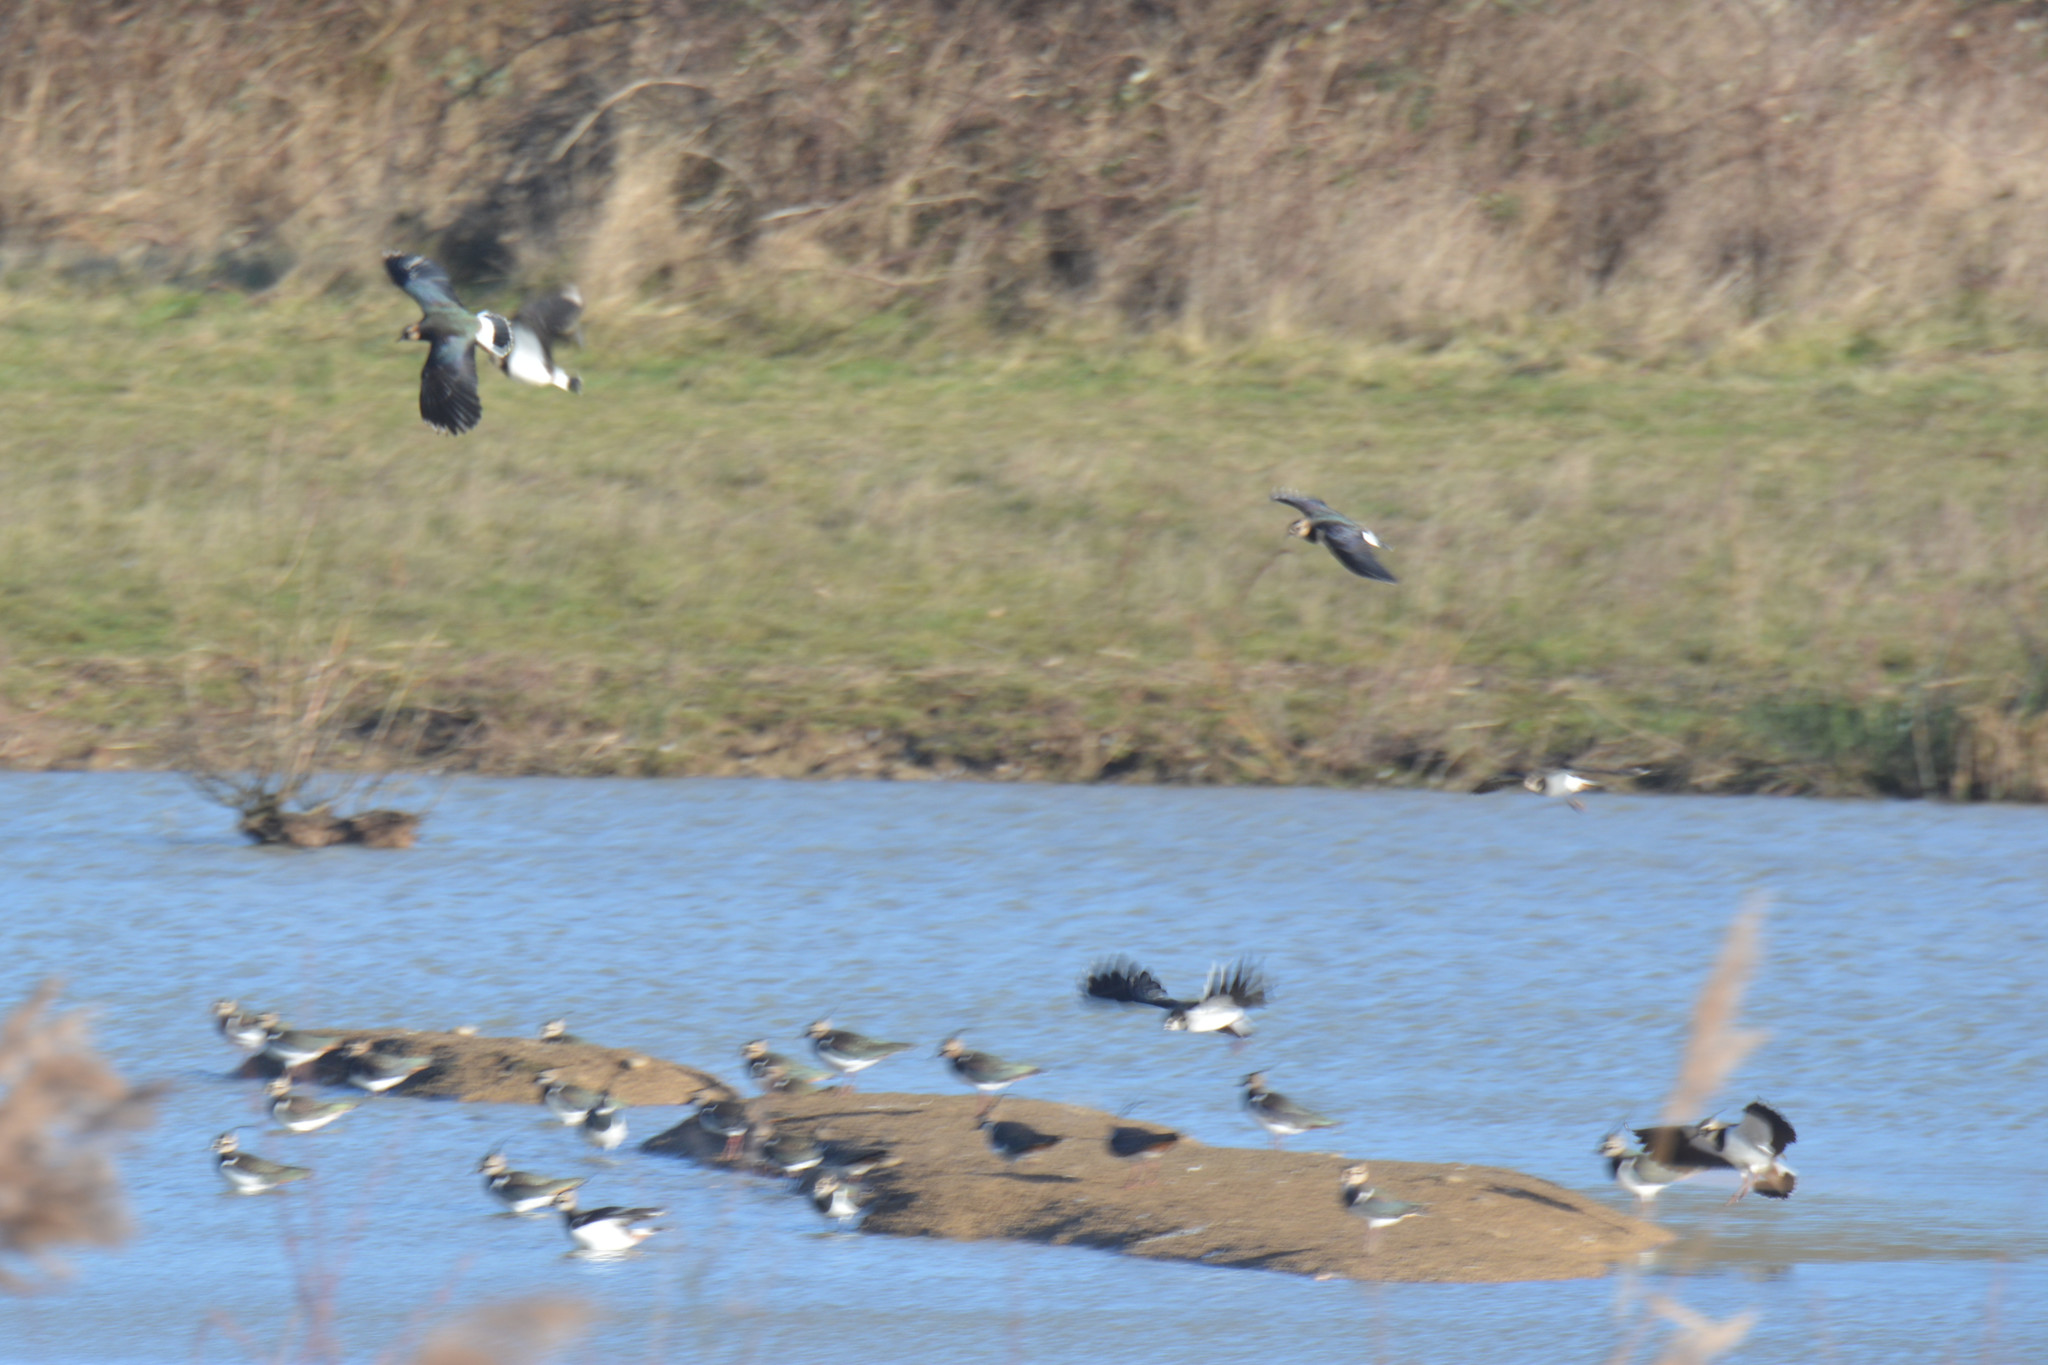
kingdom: Animalia
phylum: Chordata
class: Aves
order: Charadriiformes
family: Charadriidae
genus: Vanellus
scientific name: Vanellus vanellus
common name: Northern lapwing
